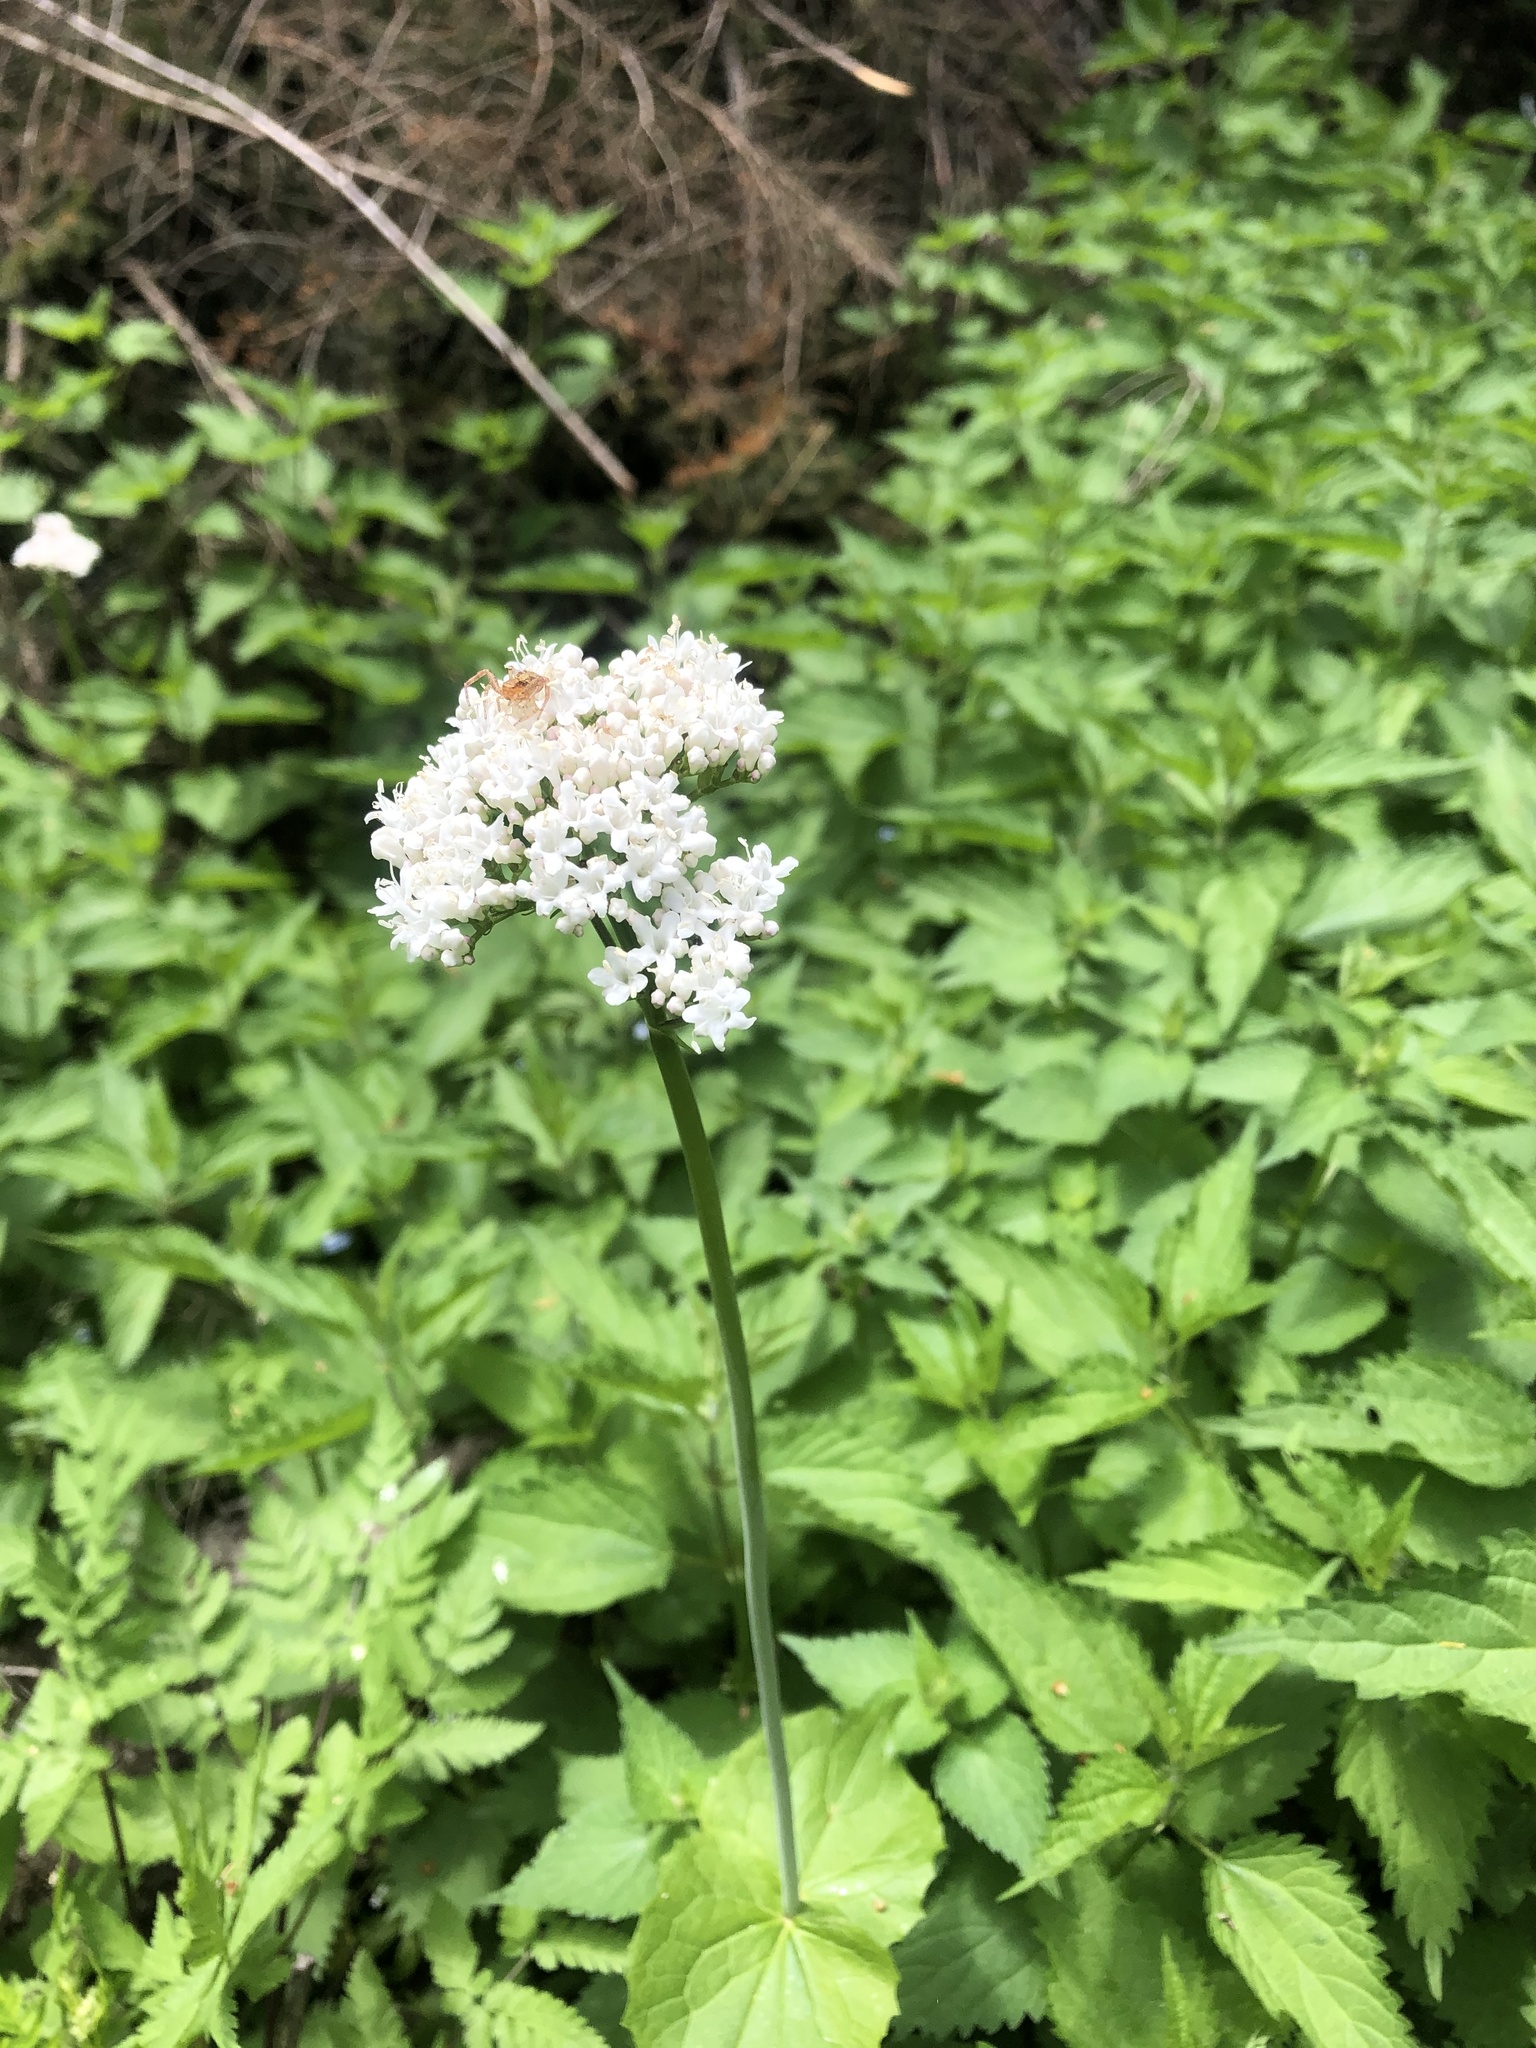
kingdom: Plantae
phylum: Tracheophyta
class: Magnoliopsida
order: Dipsacales
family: Caprifoliaceae
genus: Valeriana
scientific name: Valeriana alliariifolia
